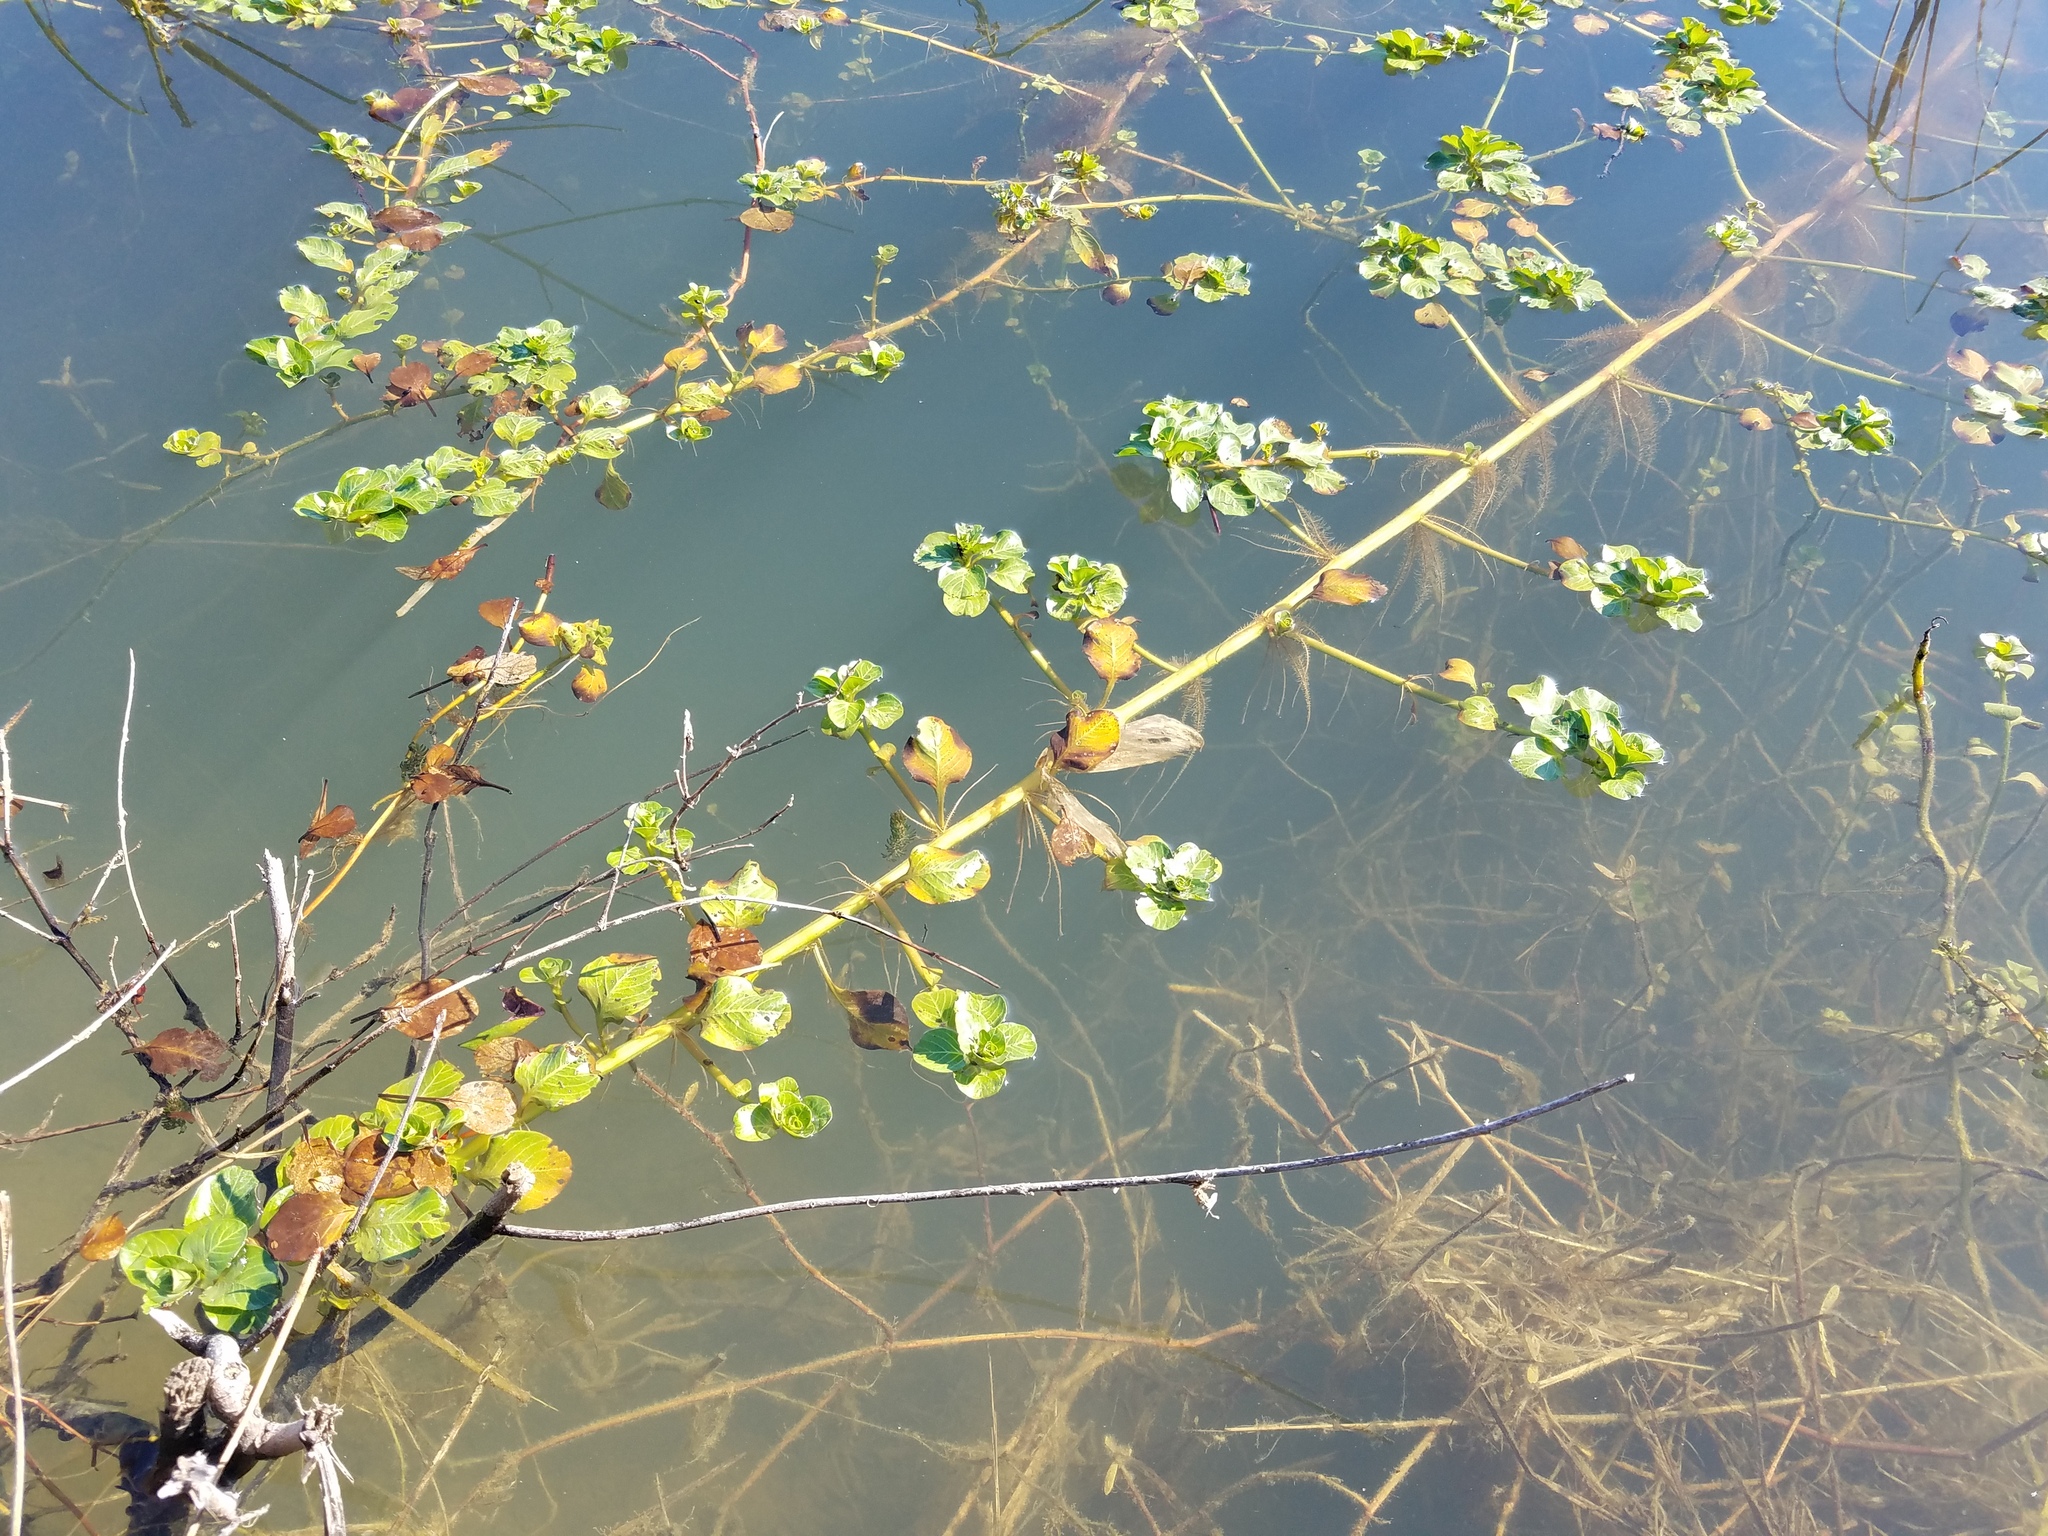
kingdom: Plantae
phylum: Tracheophyta
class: Magnoliopsida
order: Myrtales
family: Onagraceae
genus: Ludwigia
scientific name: Ludwigia peploides
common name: Floating primrose-willow
